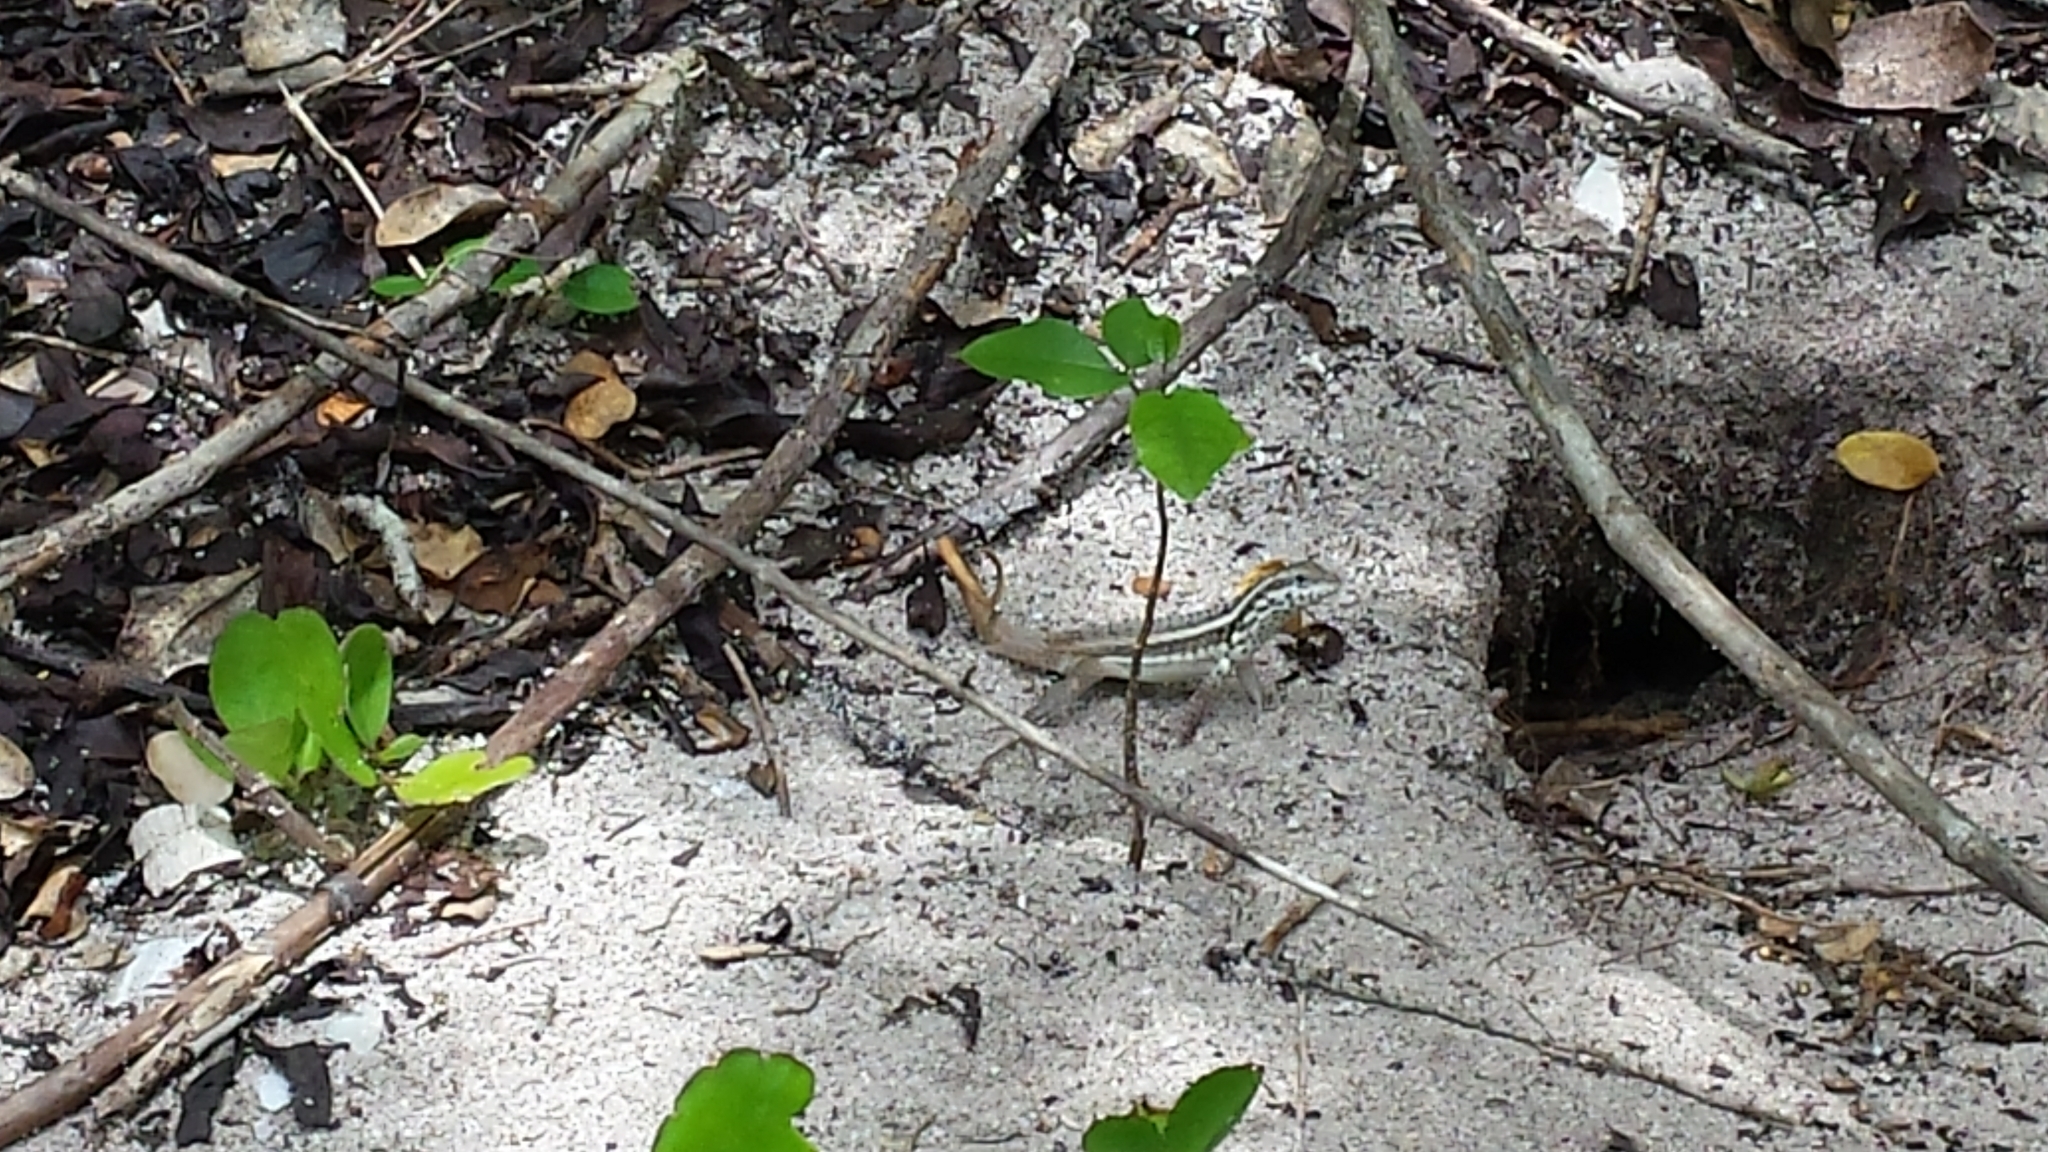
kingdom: Animalia
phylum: Chordata
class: Squamata
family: Leiocephalidae
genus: Leiocephalus
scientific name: Leiocephalus lunatus
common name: Santo domingo curlytail lizard
